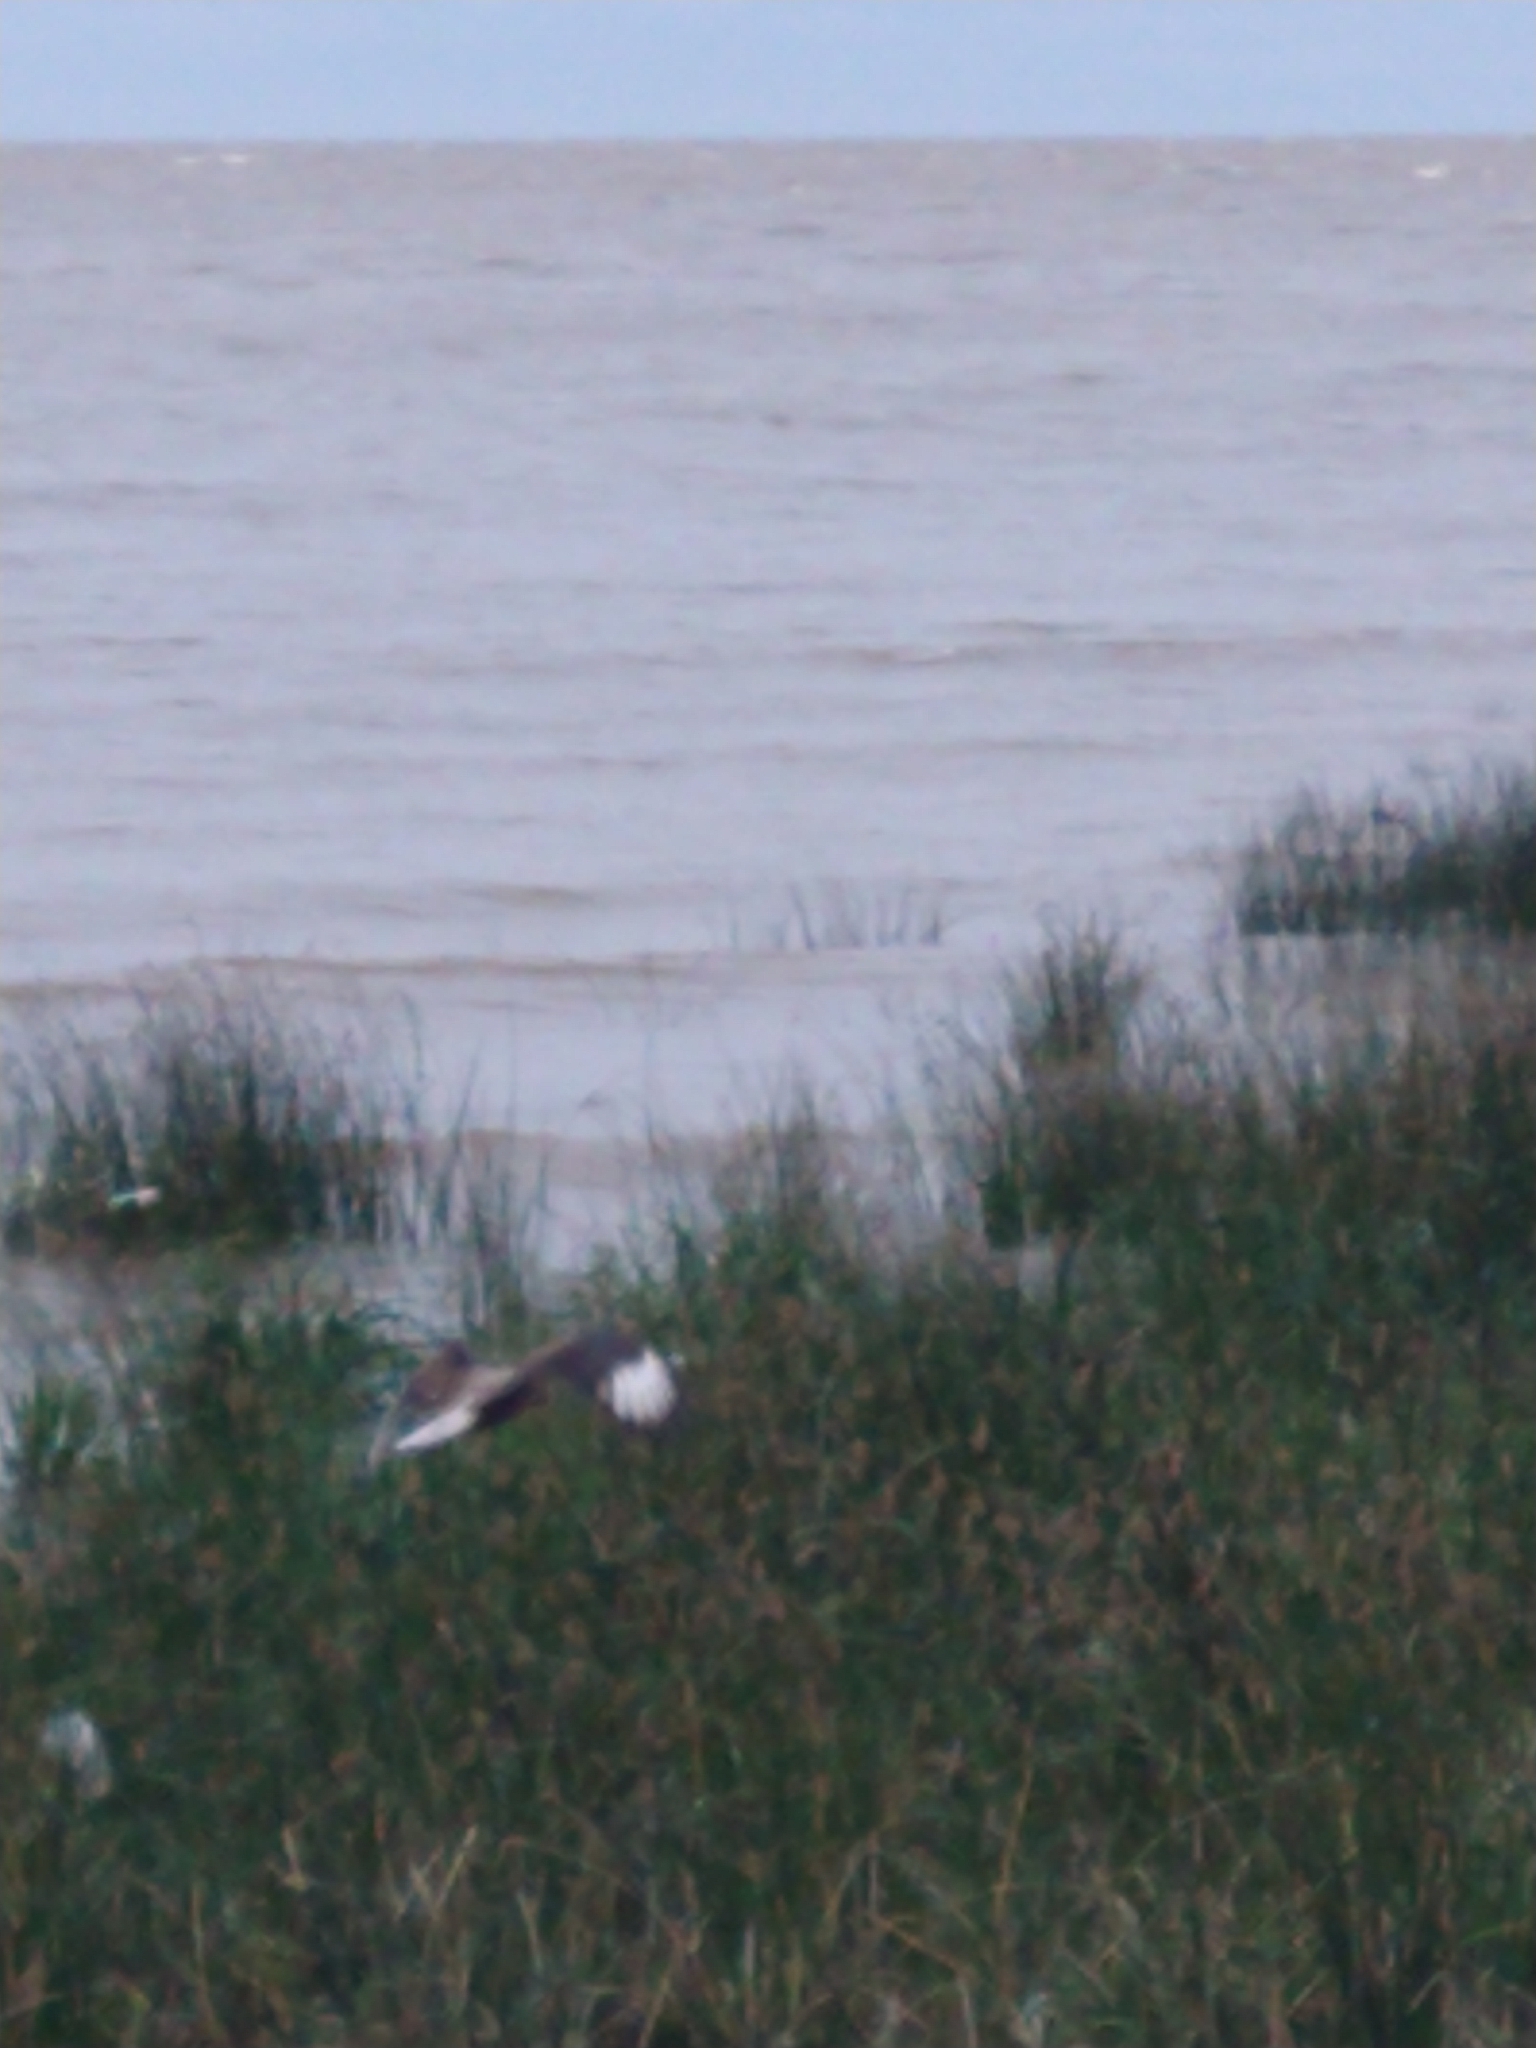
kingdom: Animalia
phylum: Chordata
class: Aves
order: Falconiformes
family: Falconidae
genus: Caracara
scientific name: Caracara plancus
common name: Southern caracara
